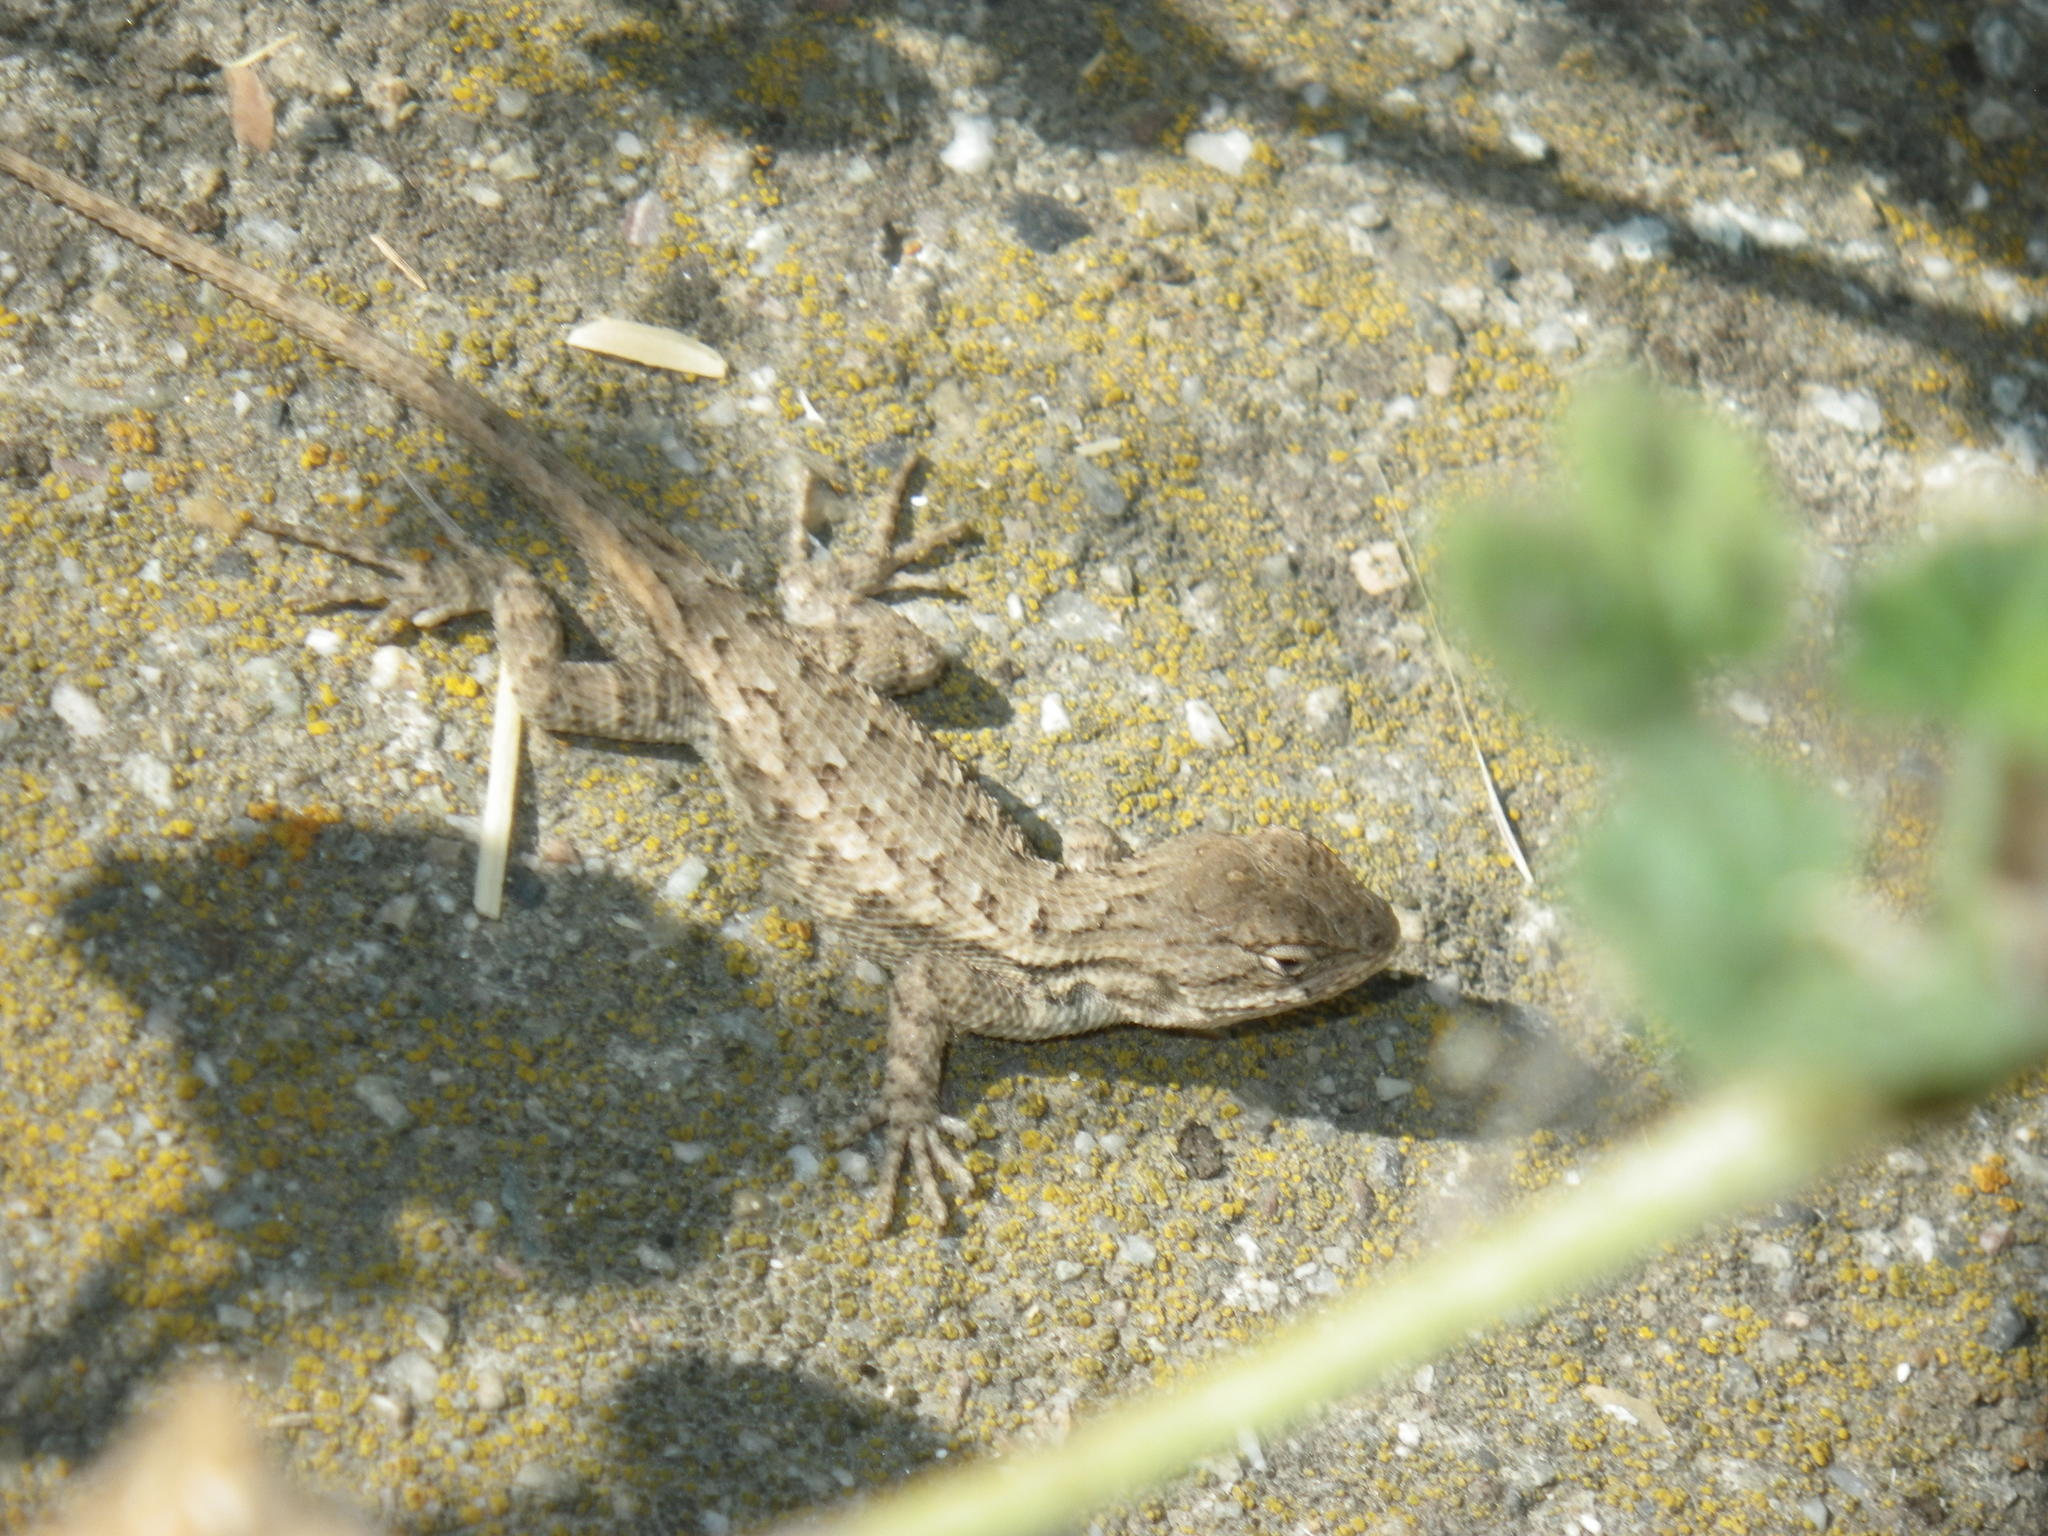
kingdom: Animalia
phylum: Chordata
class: Squamata
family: Phrynosomatidae
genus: Sceloporus
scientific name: Sceloporus occidentalis
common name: Western fence lizard
